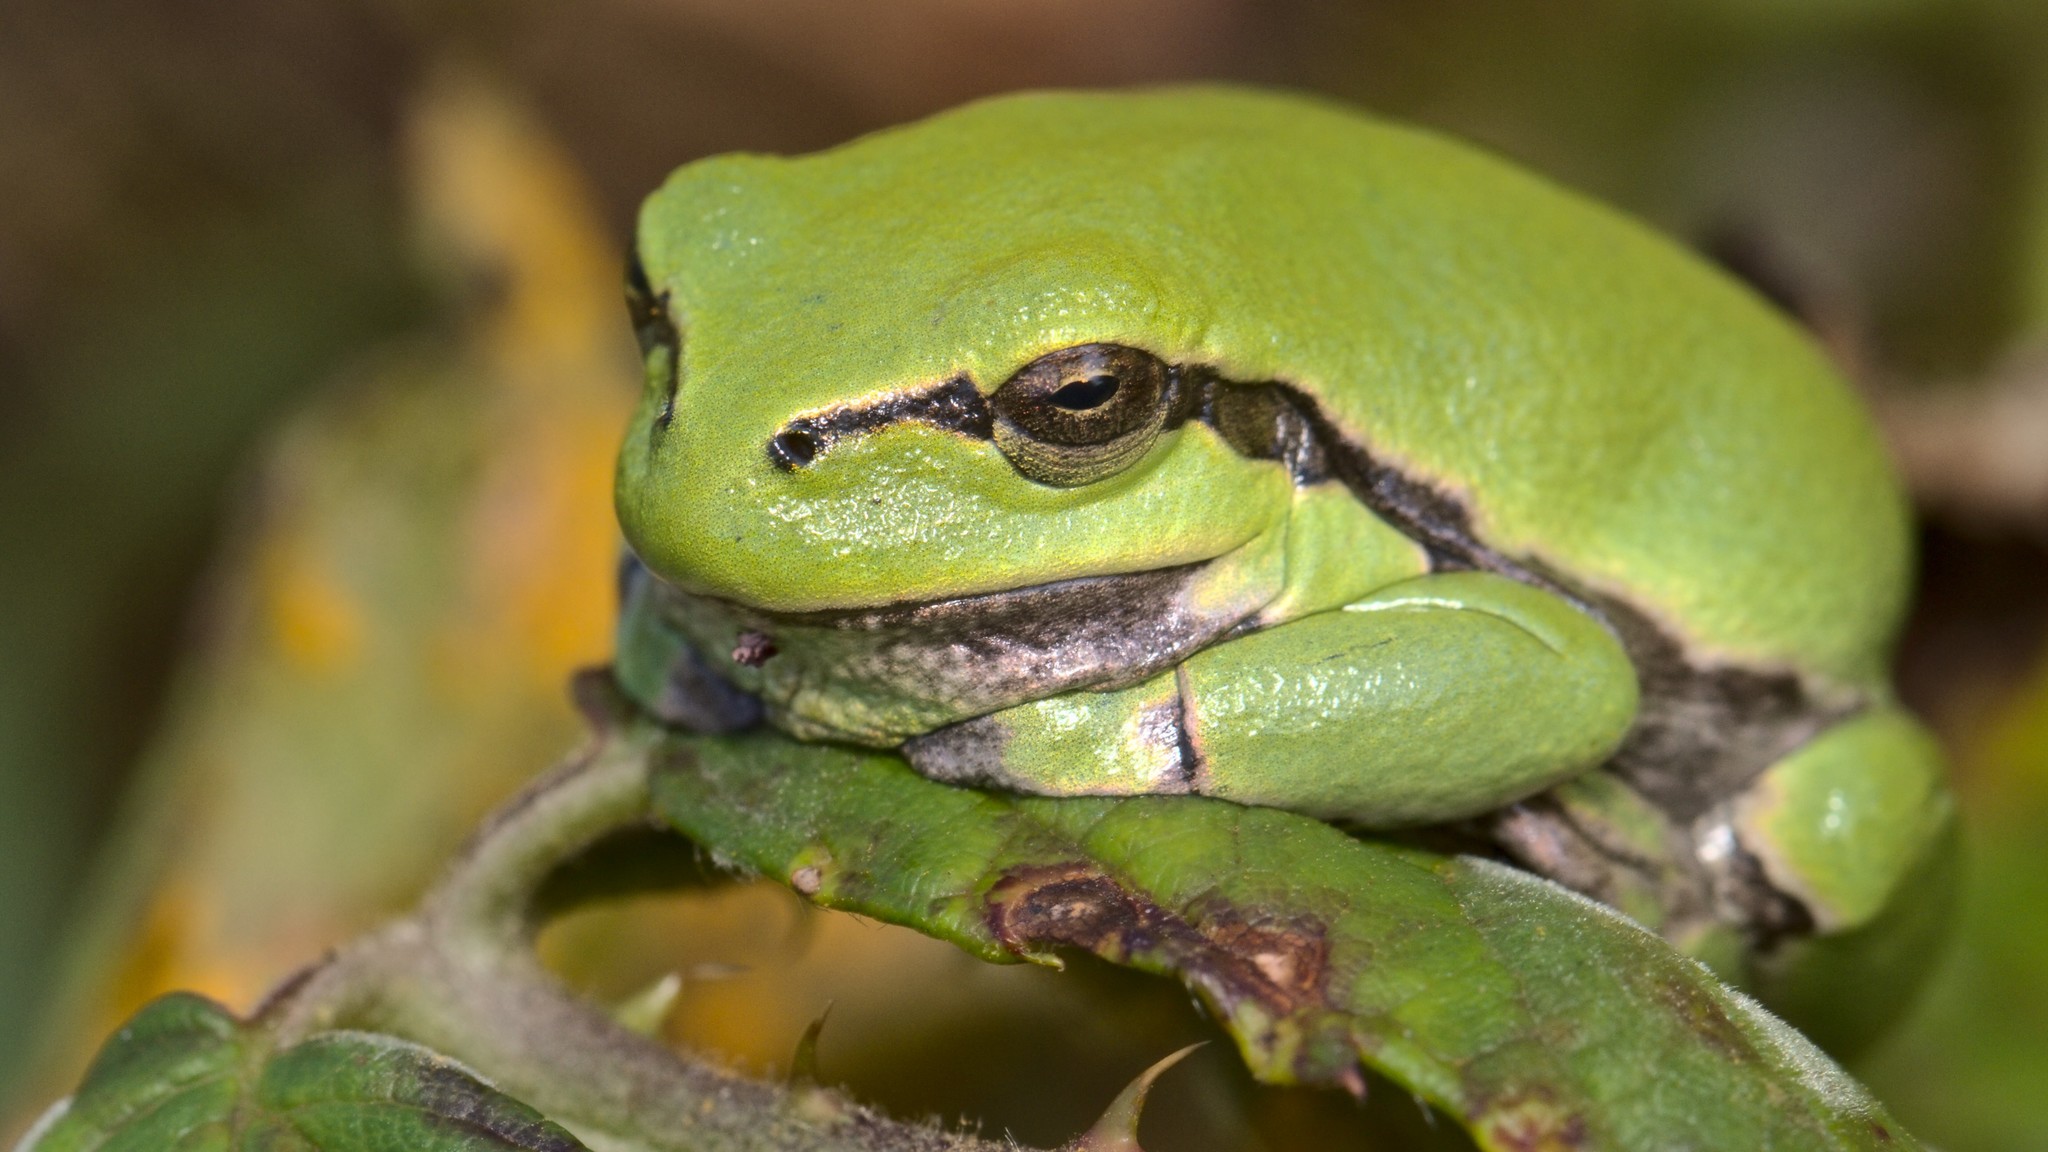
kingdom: Animalia
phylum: Chordata
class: Amphibia
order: Anura
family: Hylidae
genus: Hyla
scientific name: Hyla arborea
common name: Common tree frog
